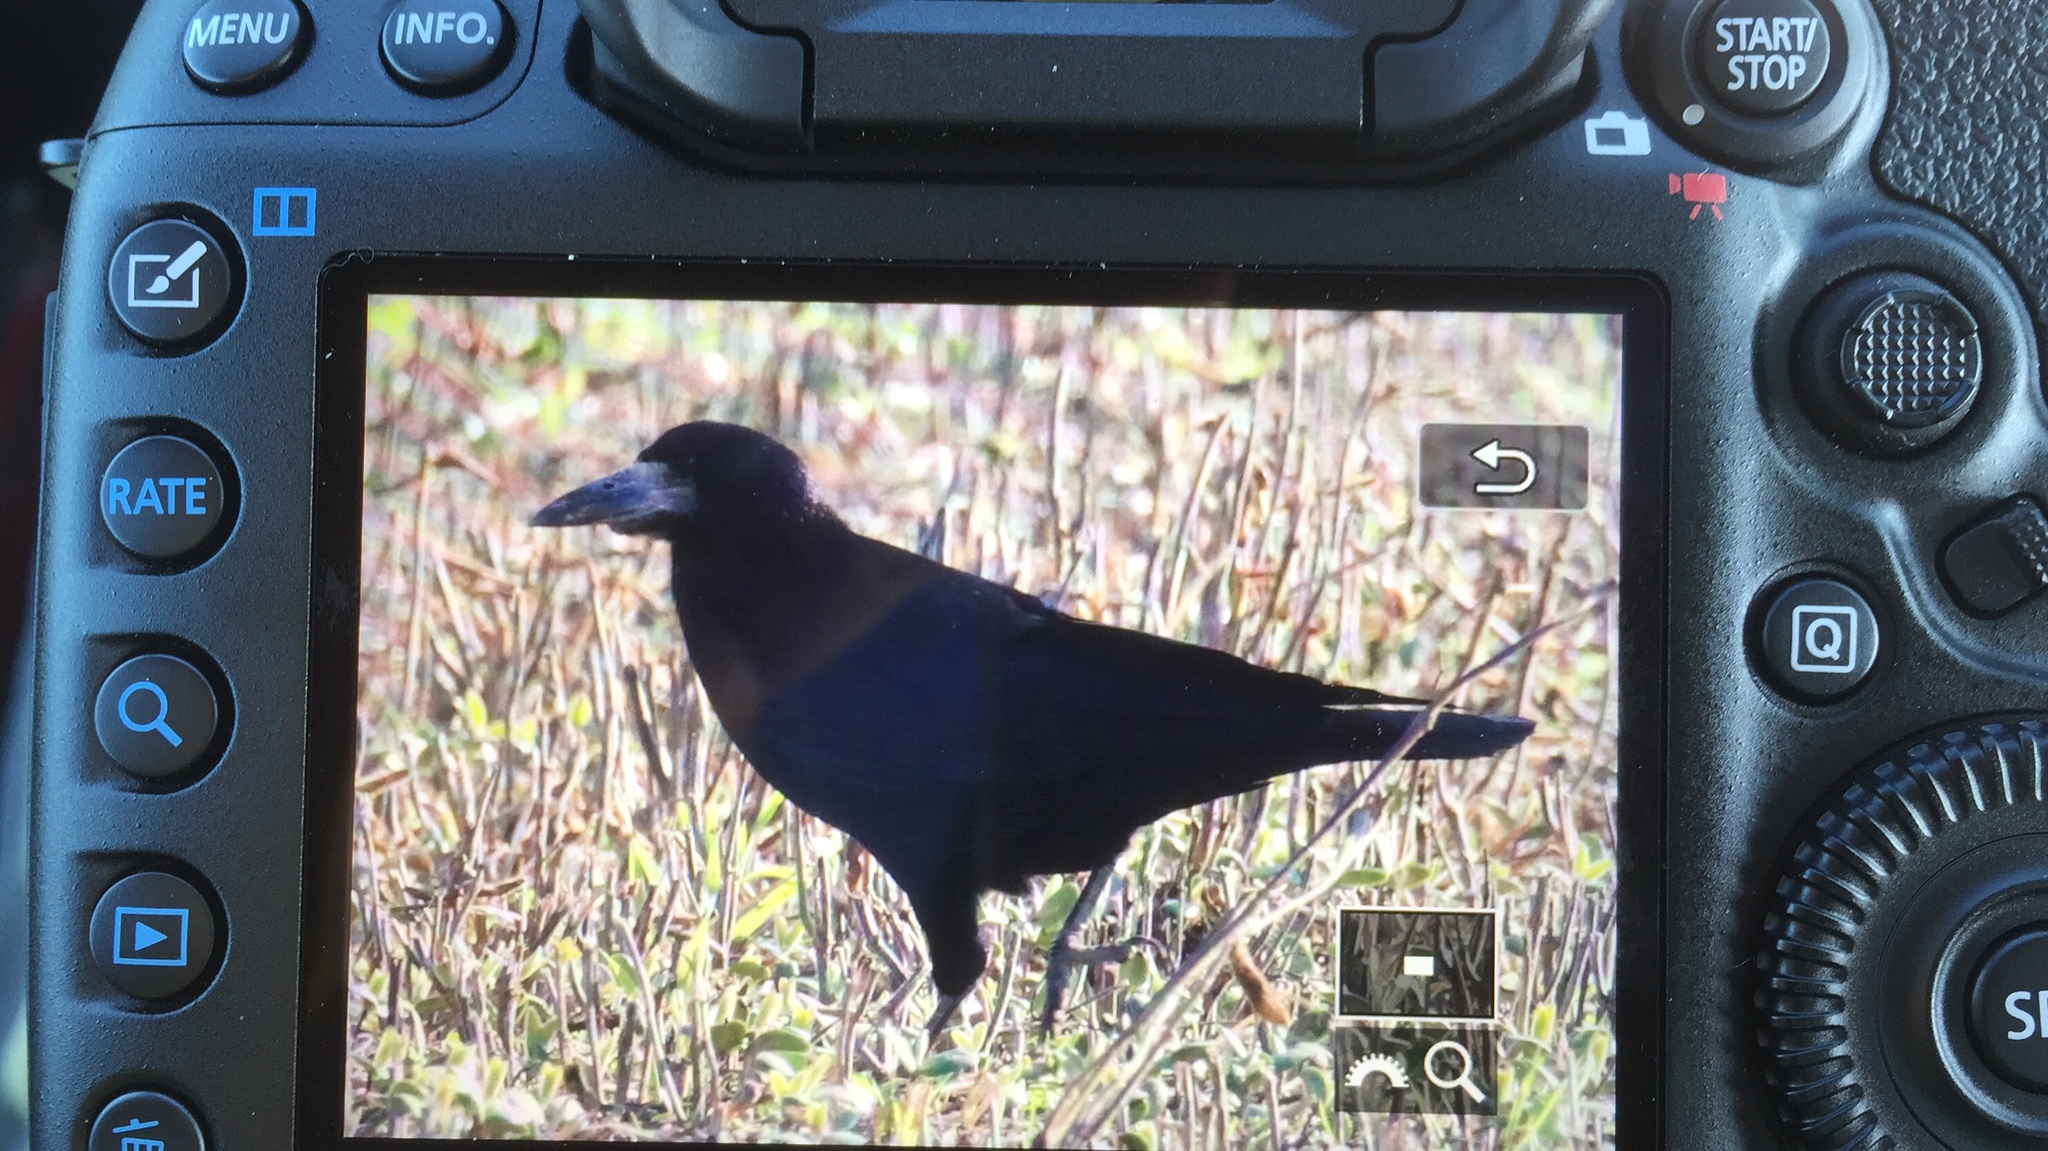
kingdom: Animalia
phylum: Chordata
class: Aves
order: Passeriformes
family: Corvidae
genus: Corvus
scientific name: Corvus frugilegus
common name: Rook
